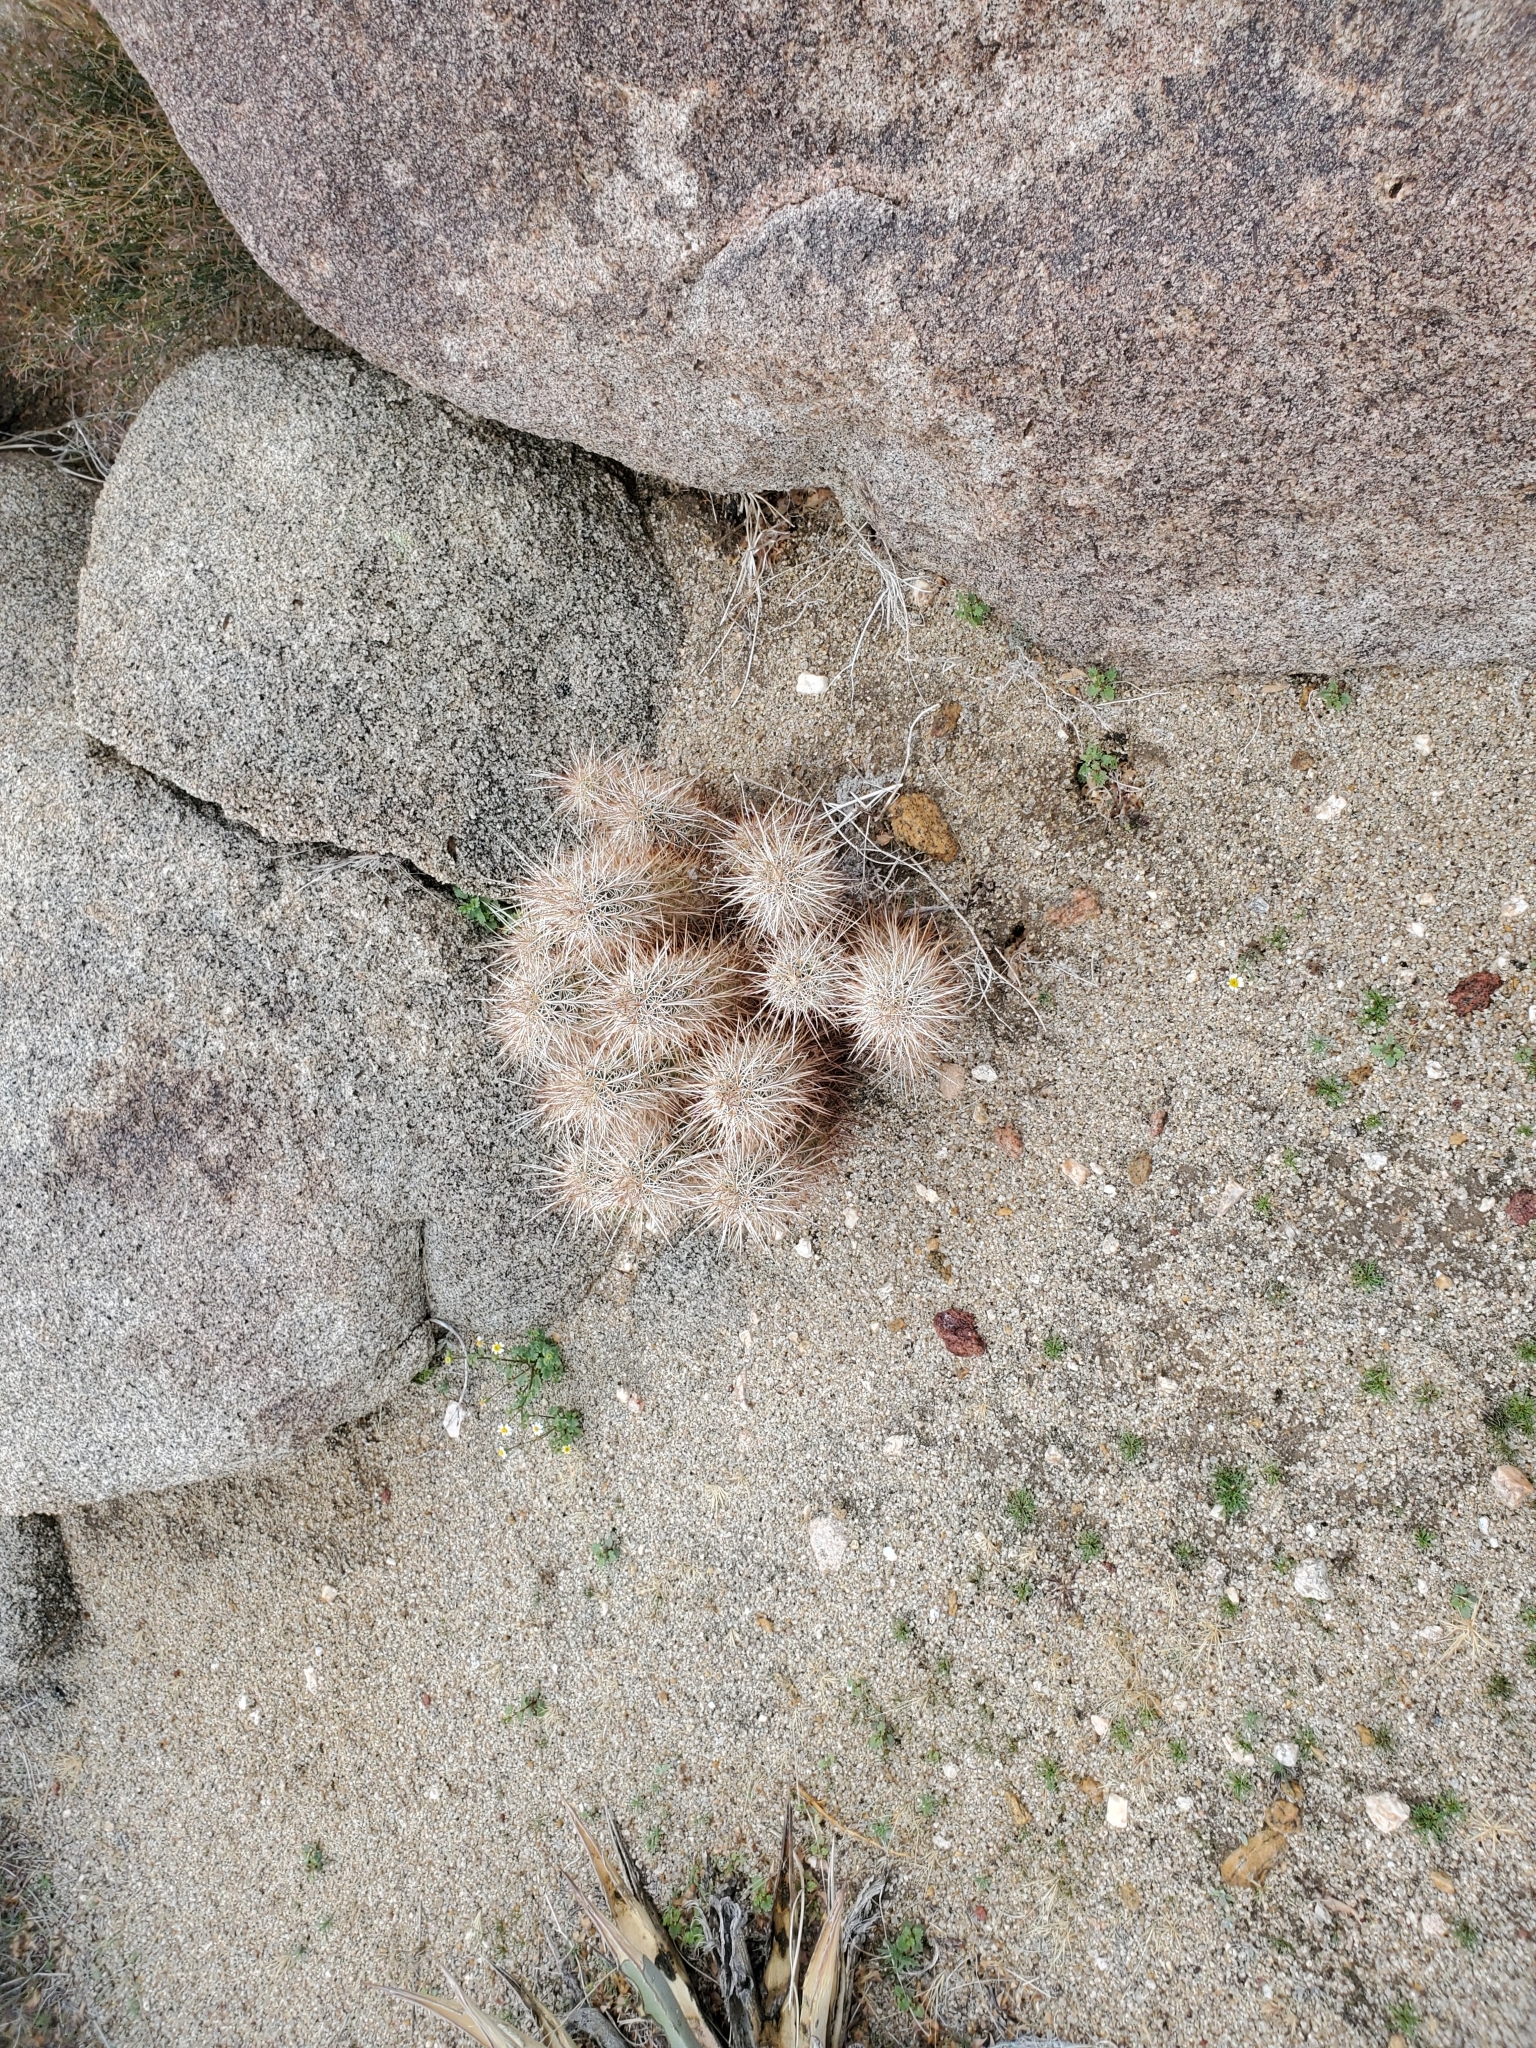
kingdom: Plantae
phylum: Tracheophyta
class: Magnoliopsida
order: Caryophyllales
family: Cactaceae
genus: Echinocereus
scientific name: Echinocereus engelmannii
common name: Engelmann's hedgehog cactus
